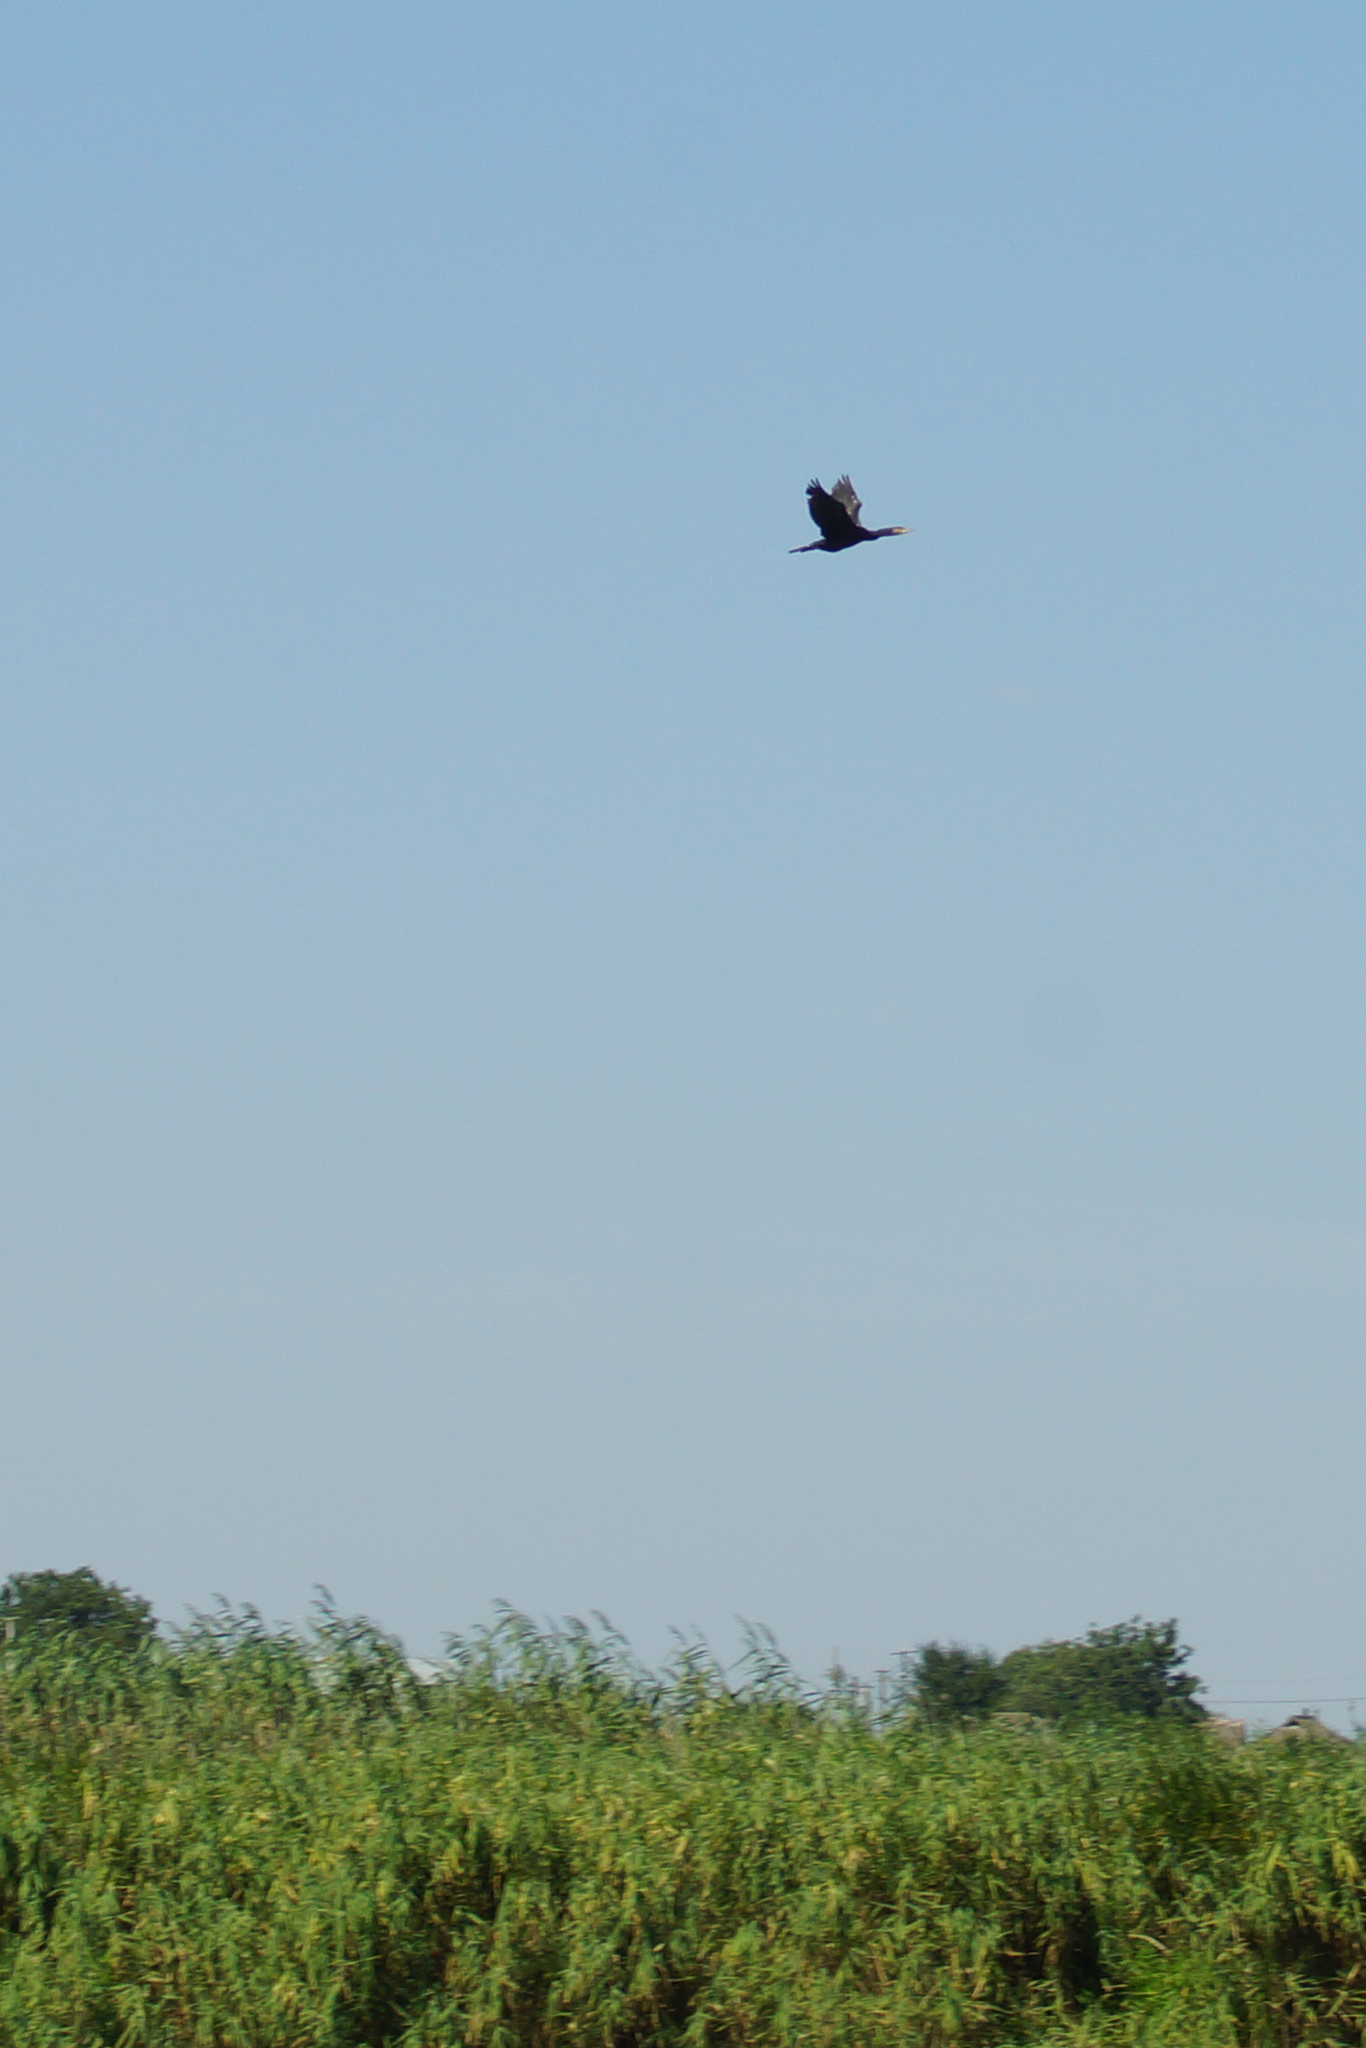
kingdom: Animalia
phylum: Chordata
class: Aves
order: Suliformes
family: Phalacrocoracidae
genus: Phalacrocorax
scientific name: Phalacrocorax carbo
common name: Great cormorant
